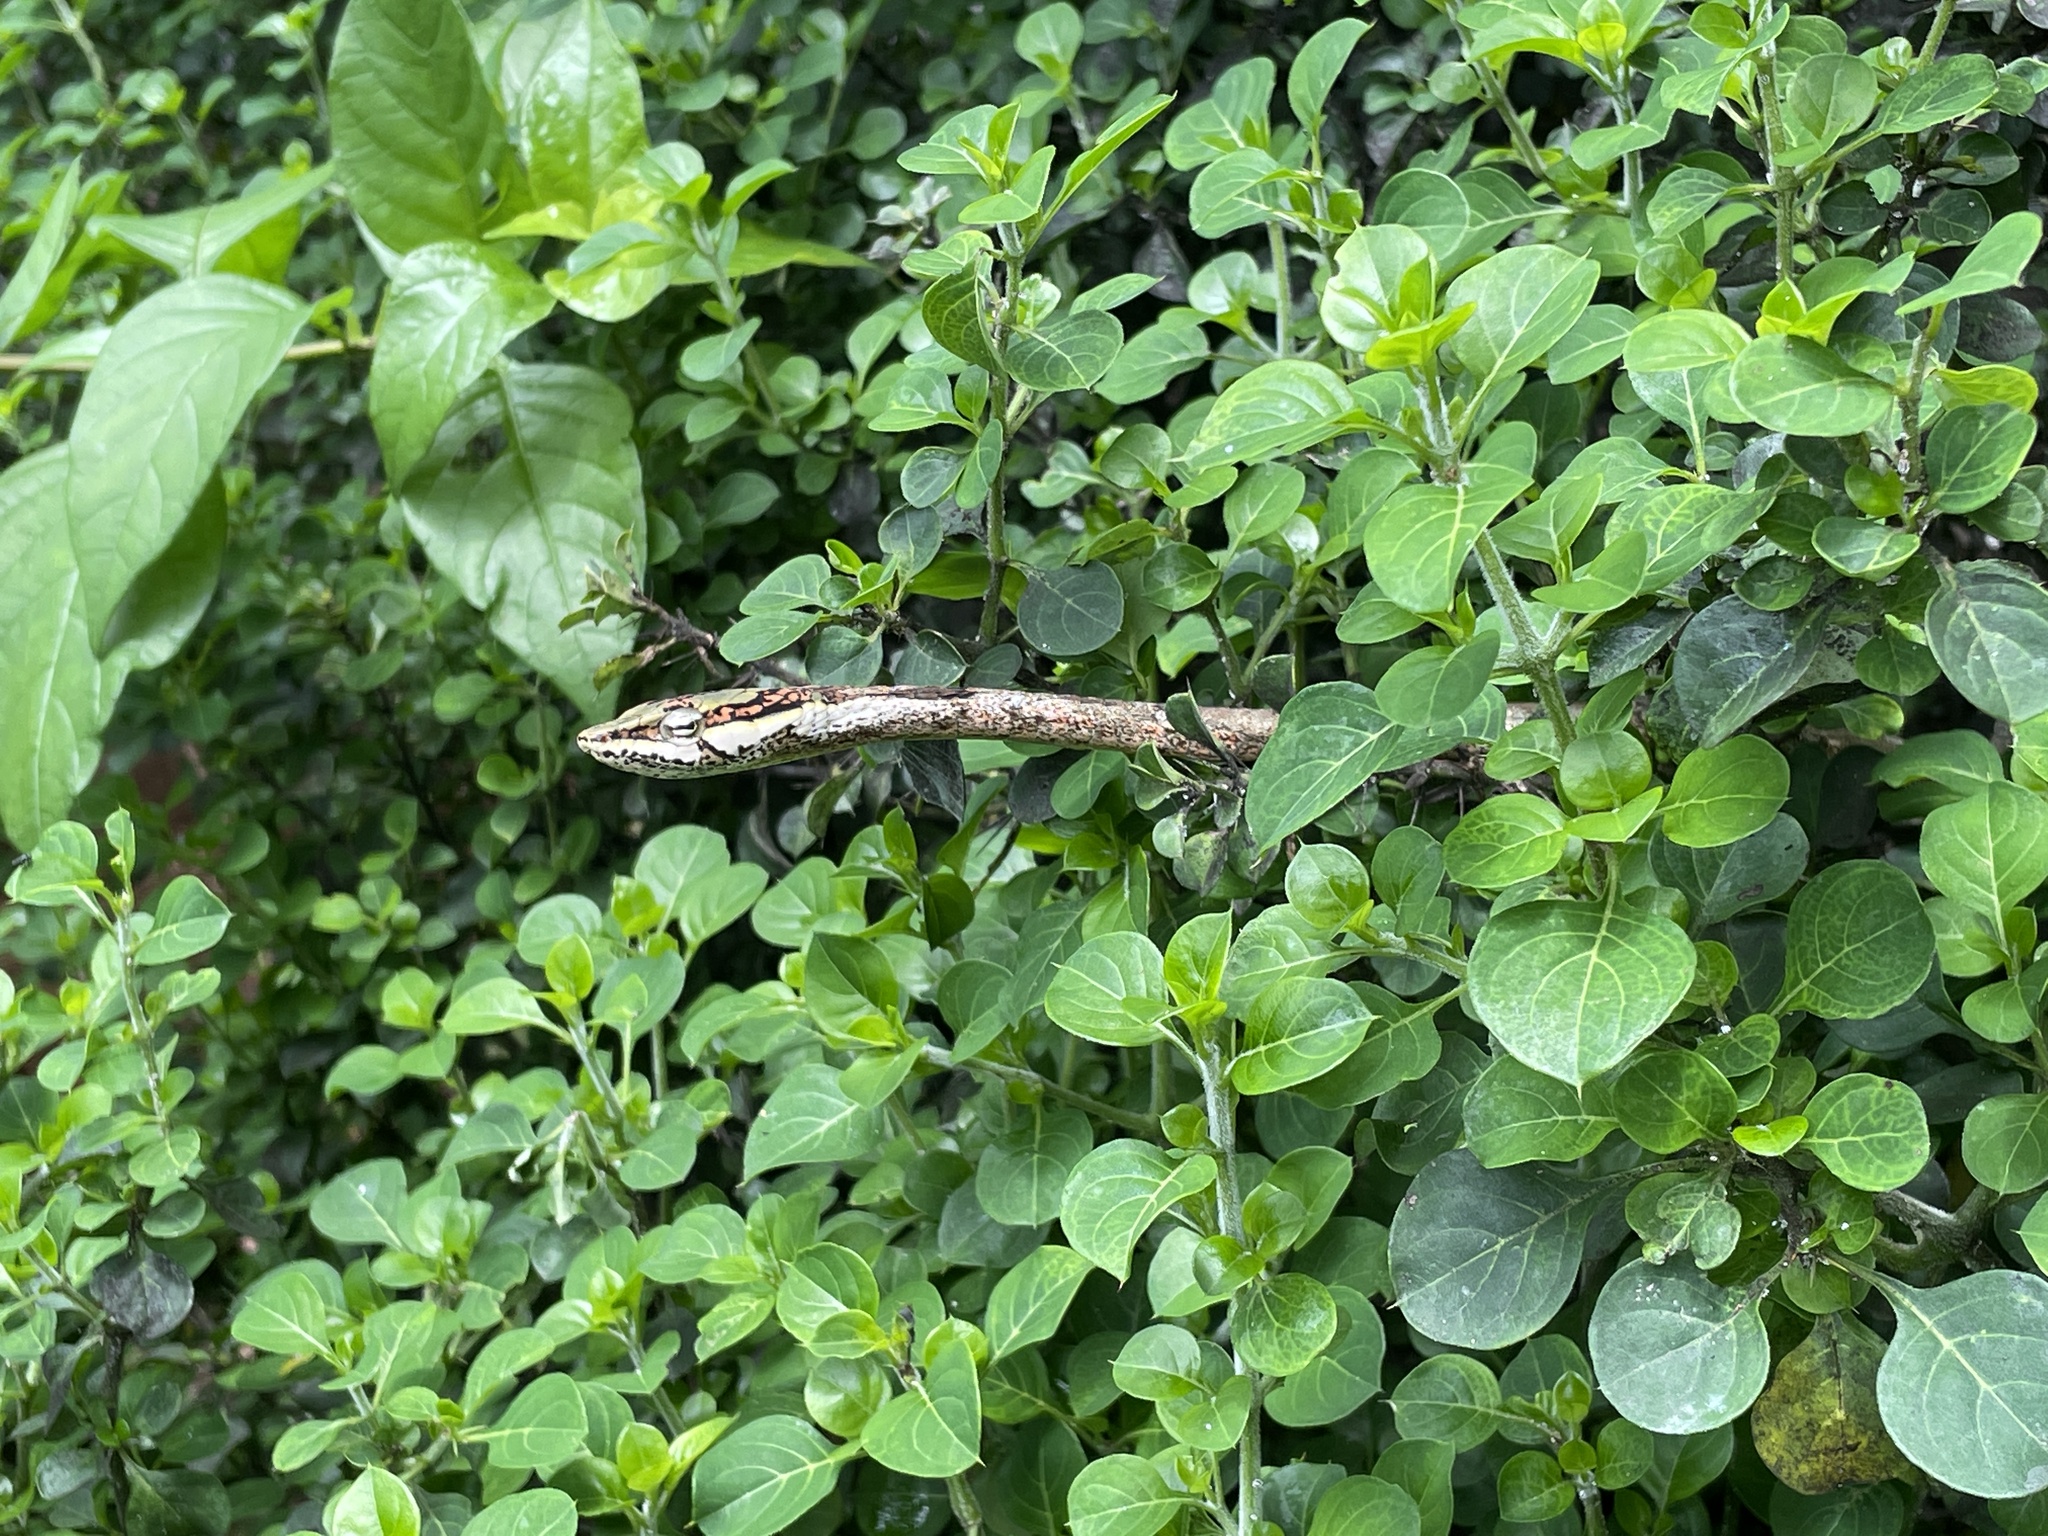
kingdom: Animalia
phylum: Chordata
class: Squamata
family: Colubridae
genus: Thelotornis
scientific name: Thelotornis capensis
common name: Savanna vine snake
